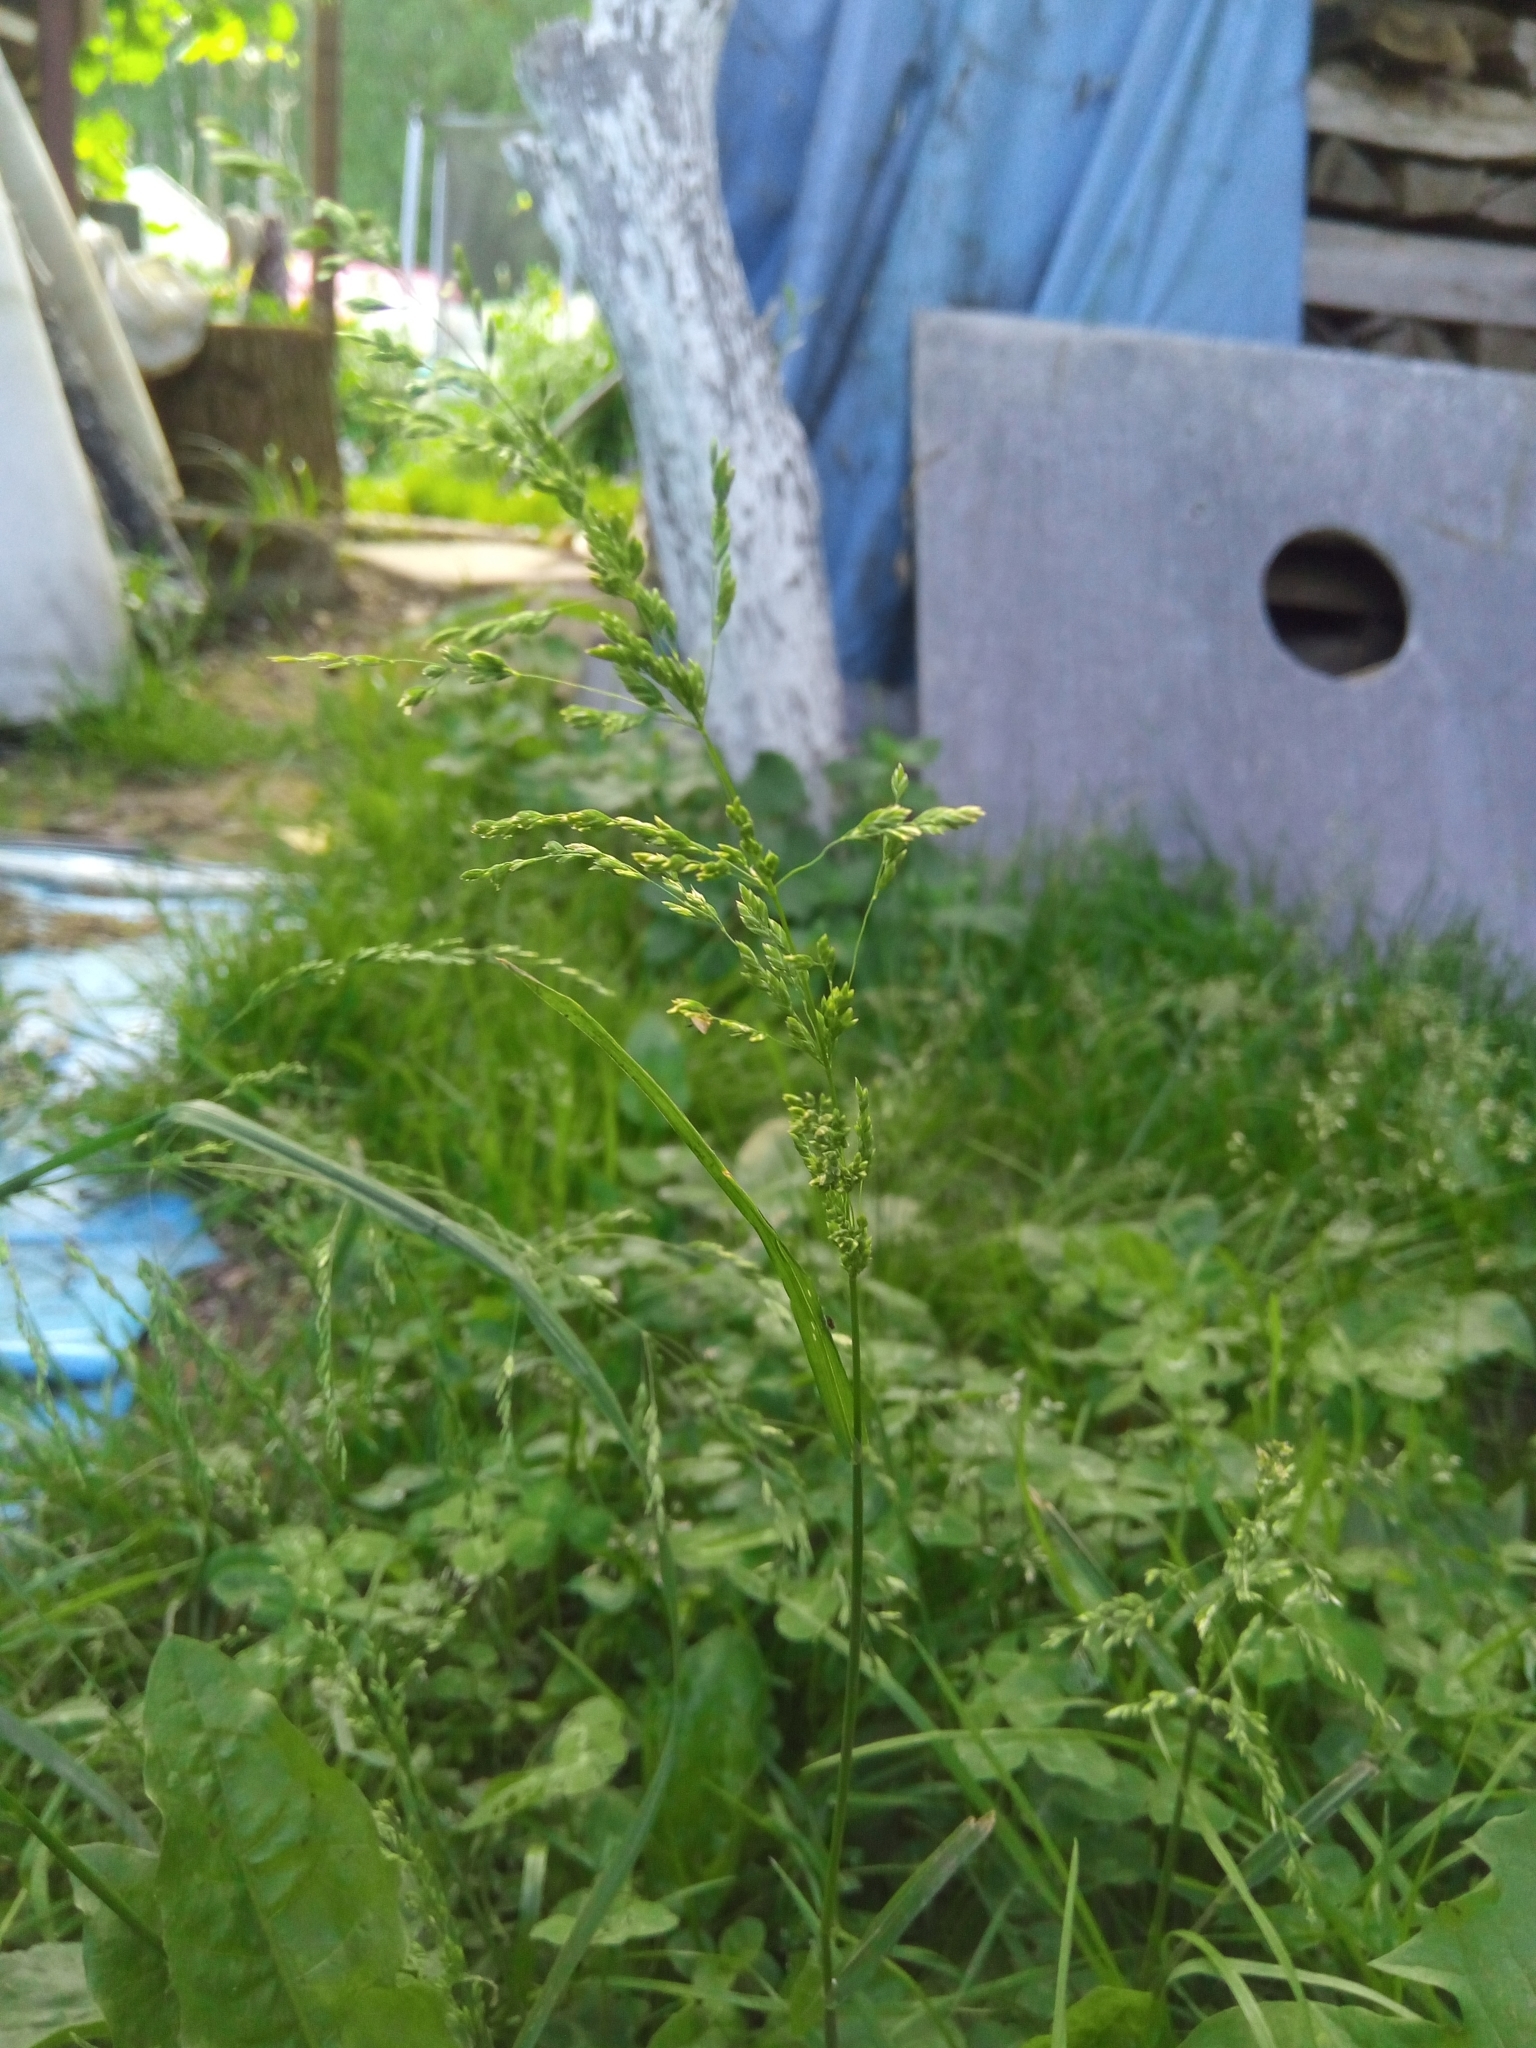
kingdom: Plantae
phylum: Tracheophyta
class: Liliopsida
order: Poales
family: Poaceae
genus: Poa
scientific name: Poa trivialis
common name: Rough bluegrass
